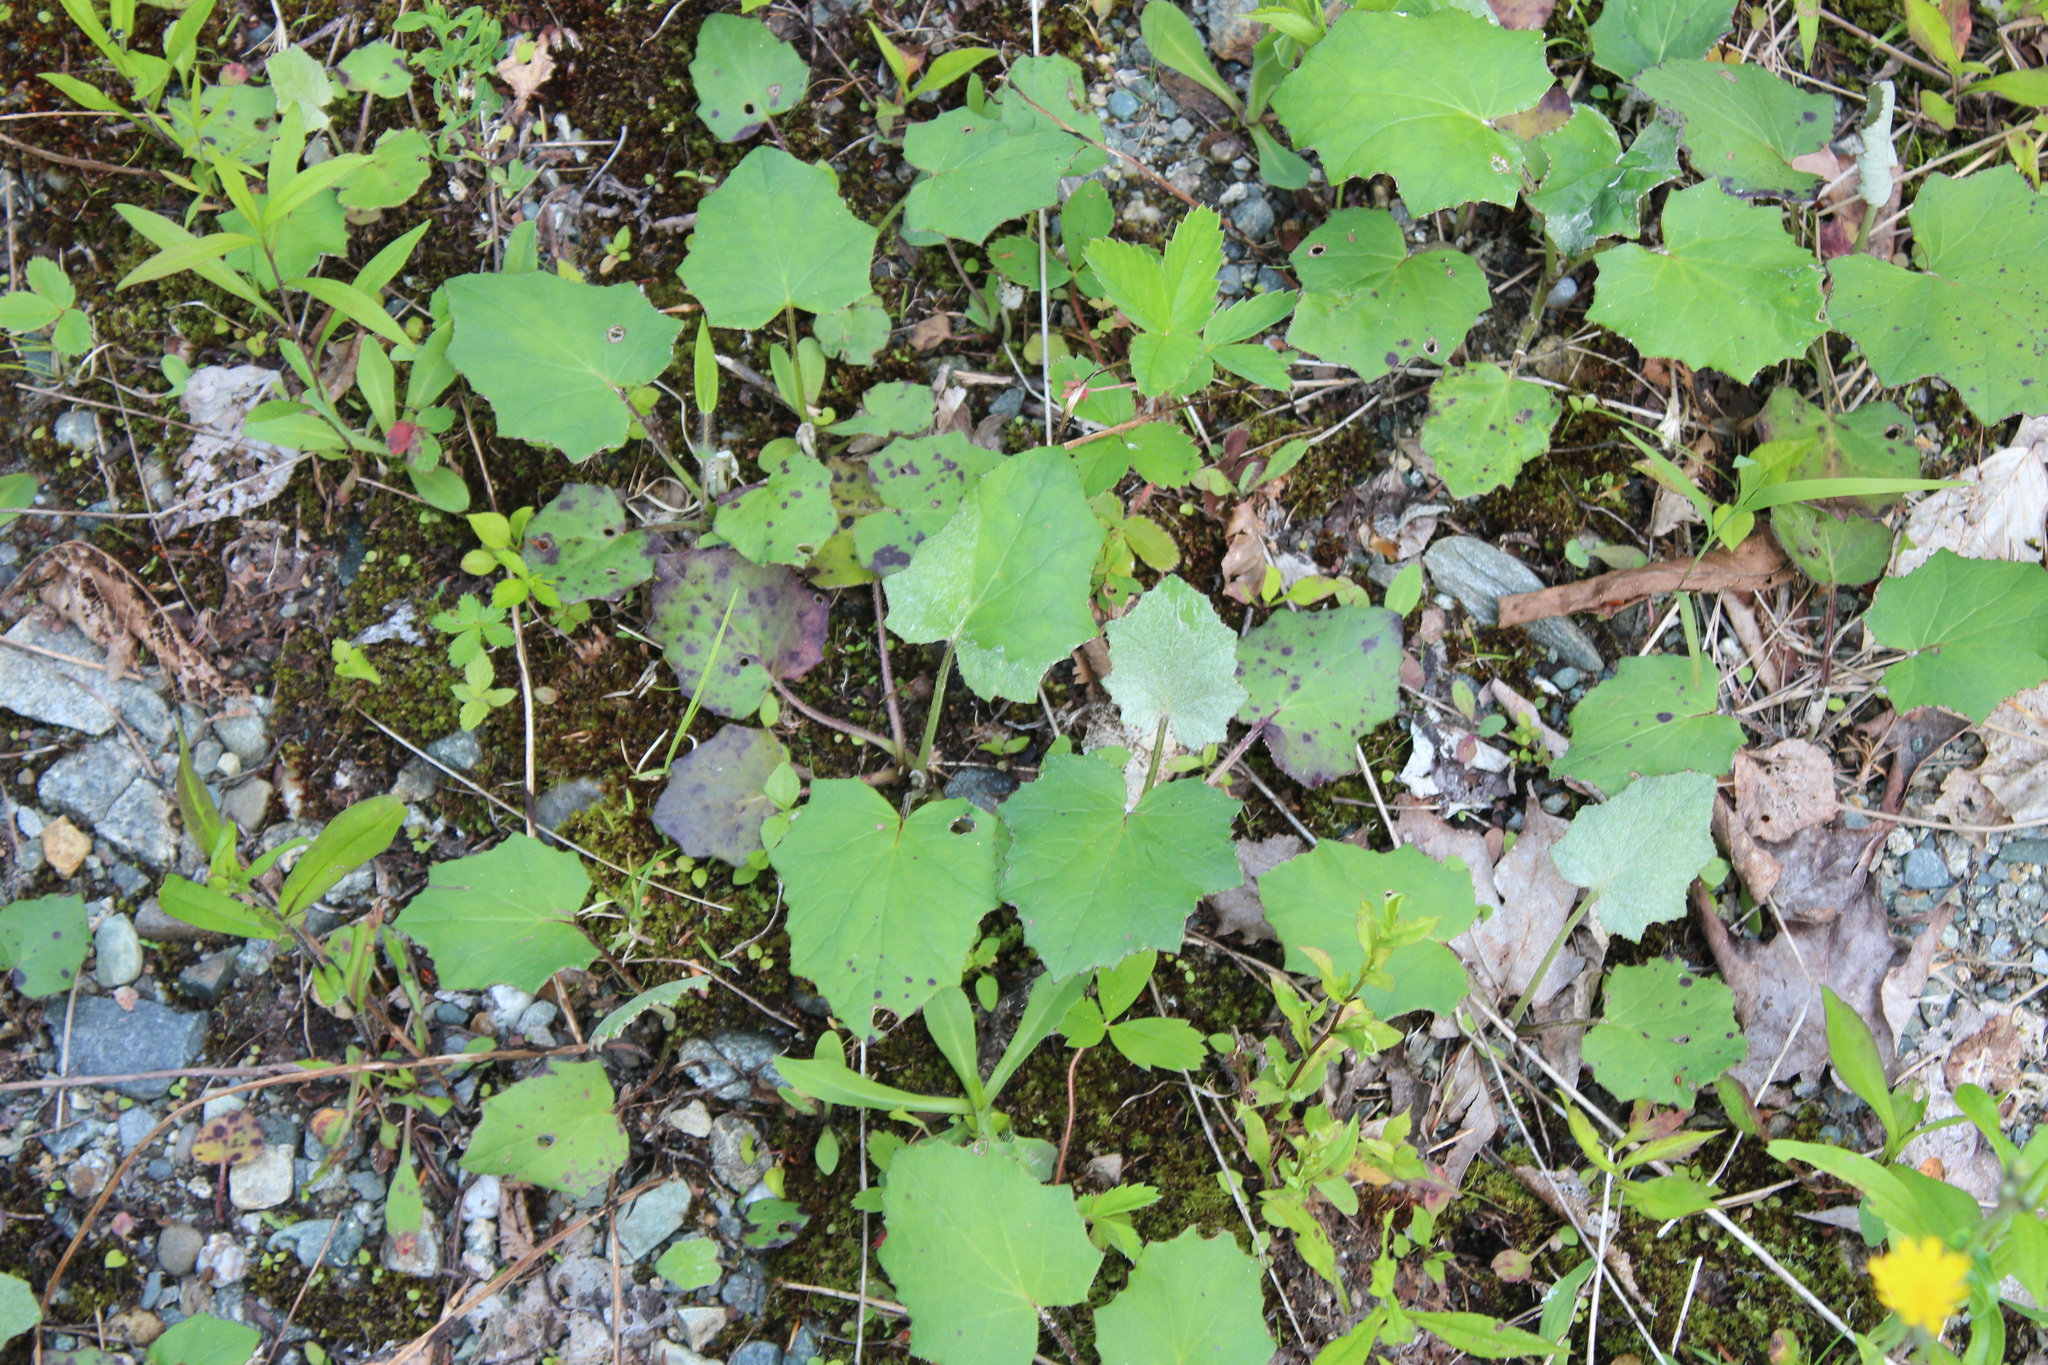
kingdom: Plantae
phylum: Tracheophyta
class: Magnoliopsida
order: Asterales
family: Asteraceae
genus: Tussilago
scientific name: Tussilago farfara
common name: Coltsfoot
